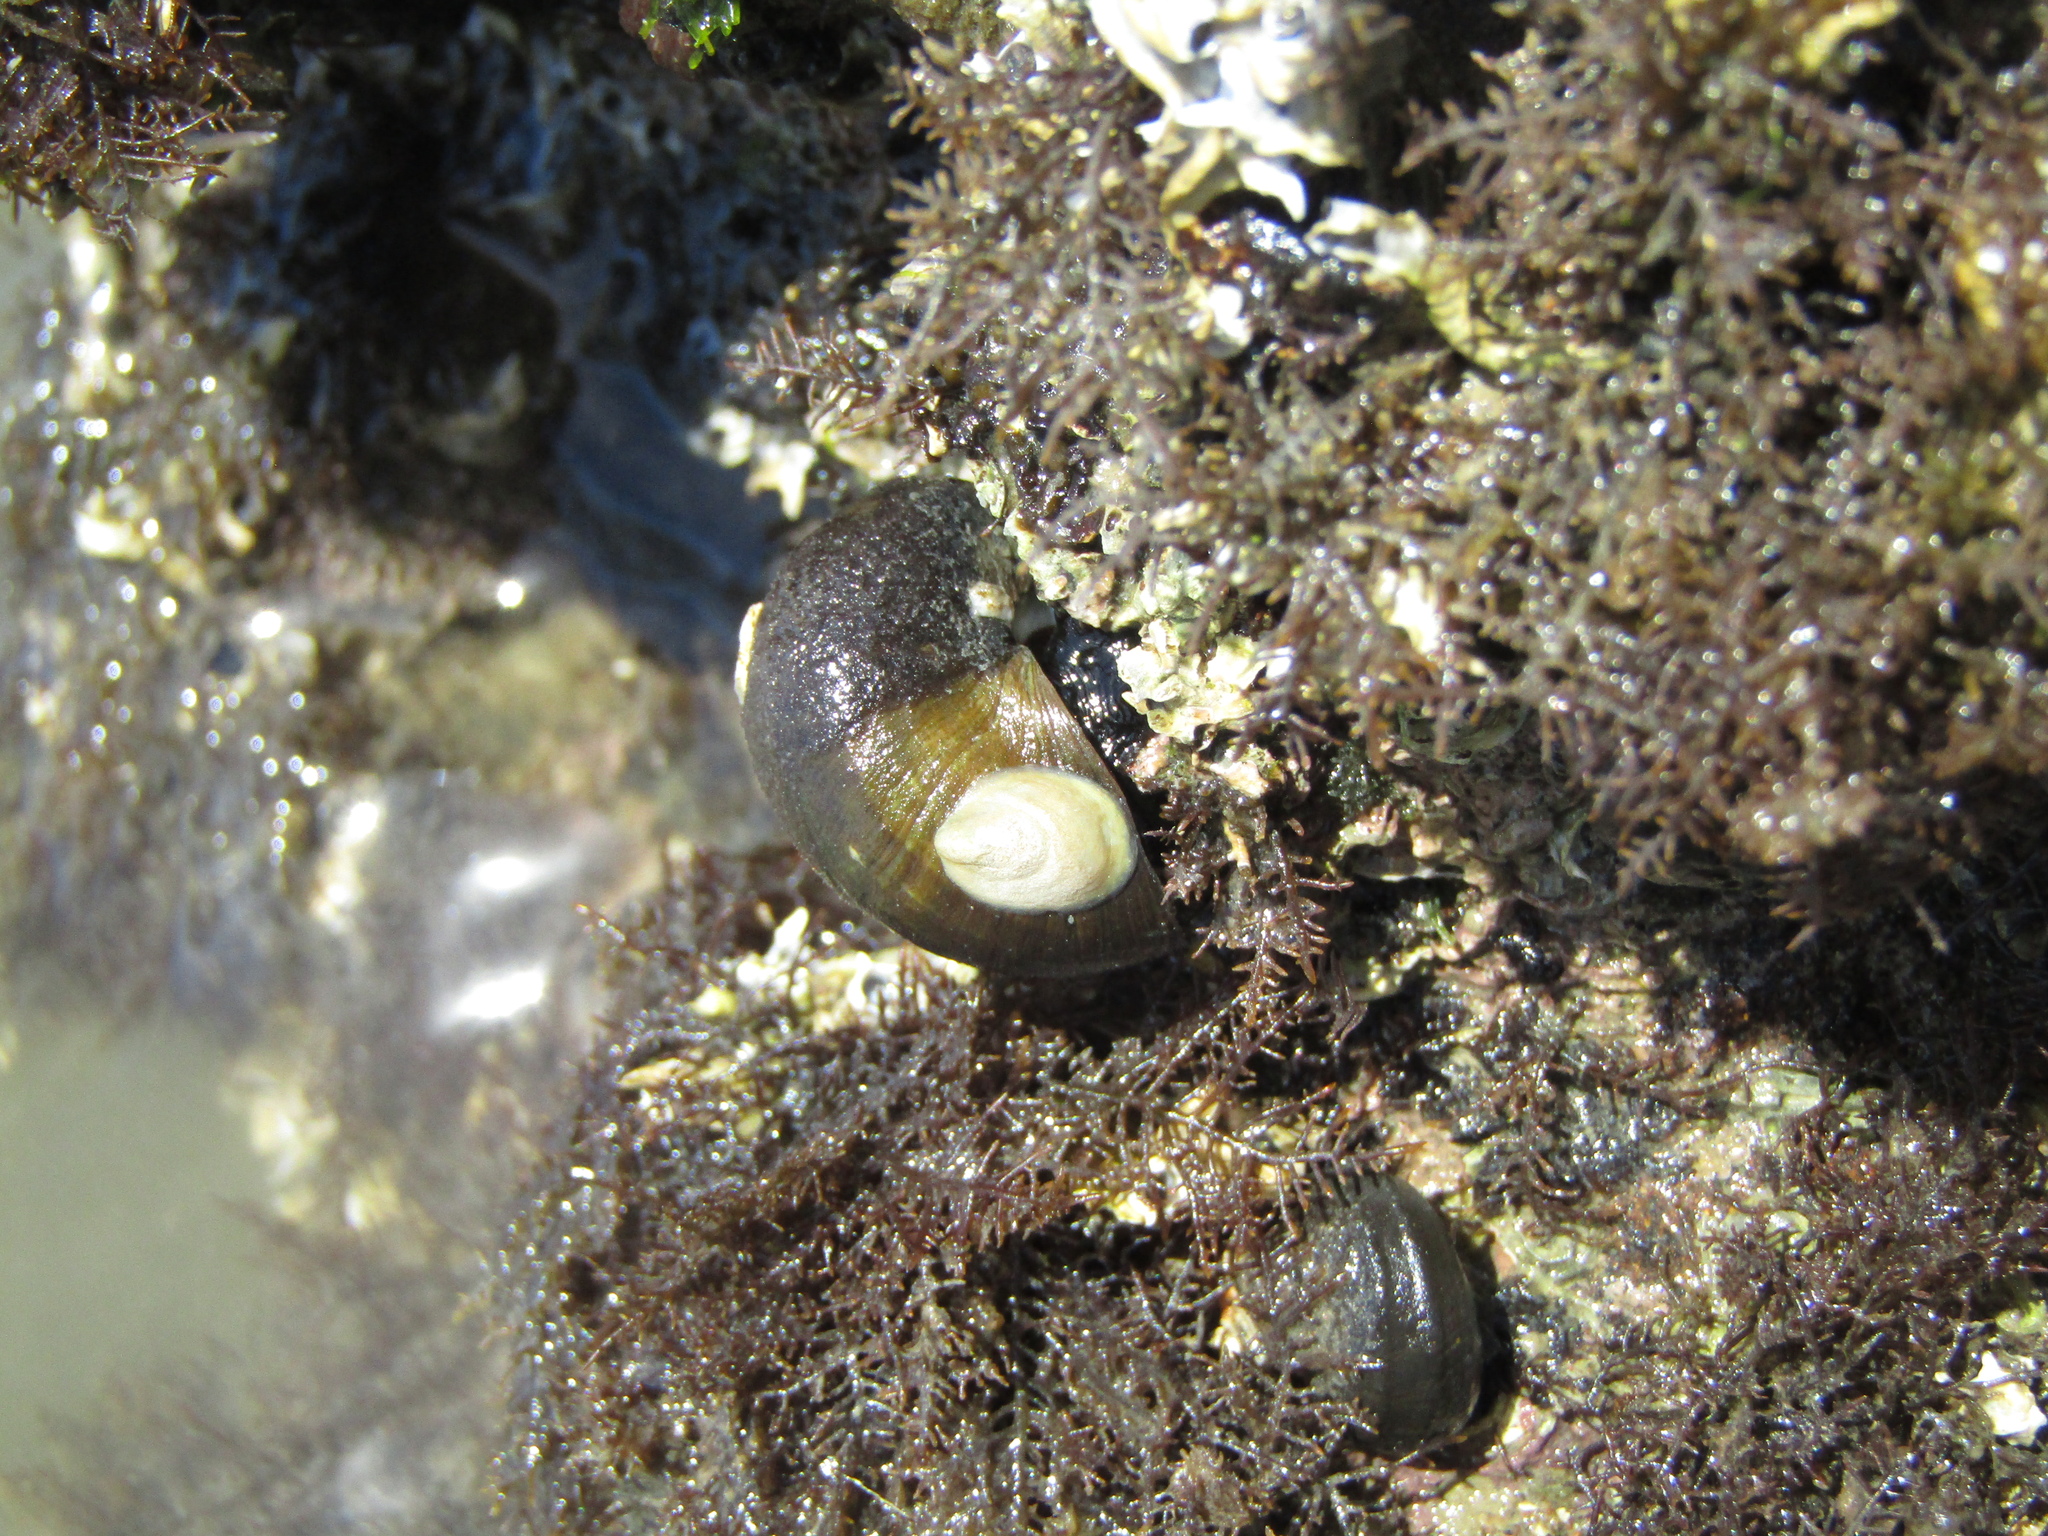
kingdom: Animalia
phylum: Mollusca
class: Gastropoda
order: Trochida
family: Turbinidae
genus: Lunella
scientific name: Lunella smaragda
